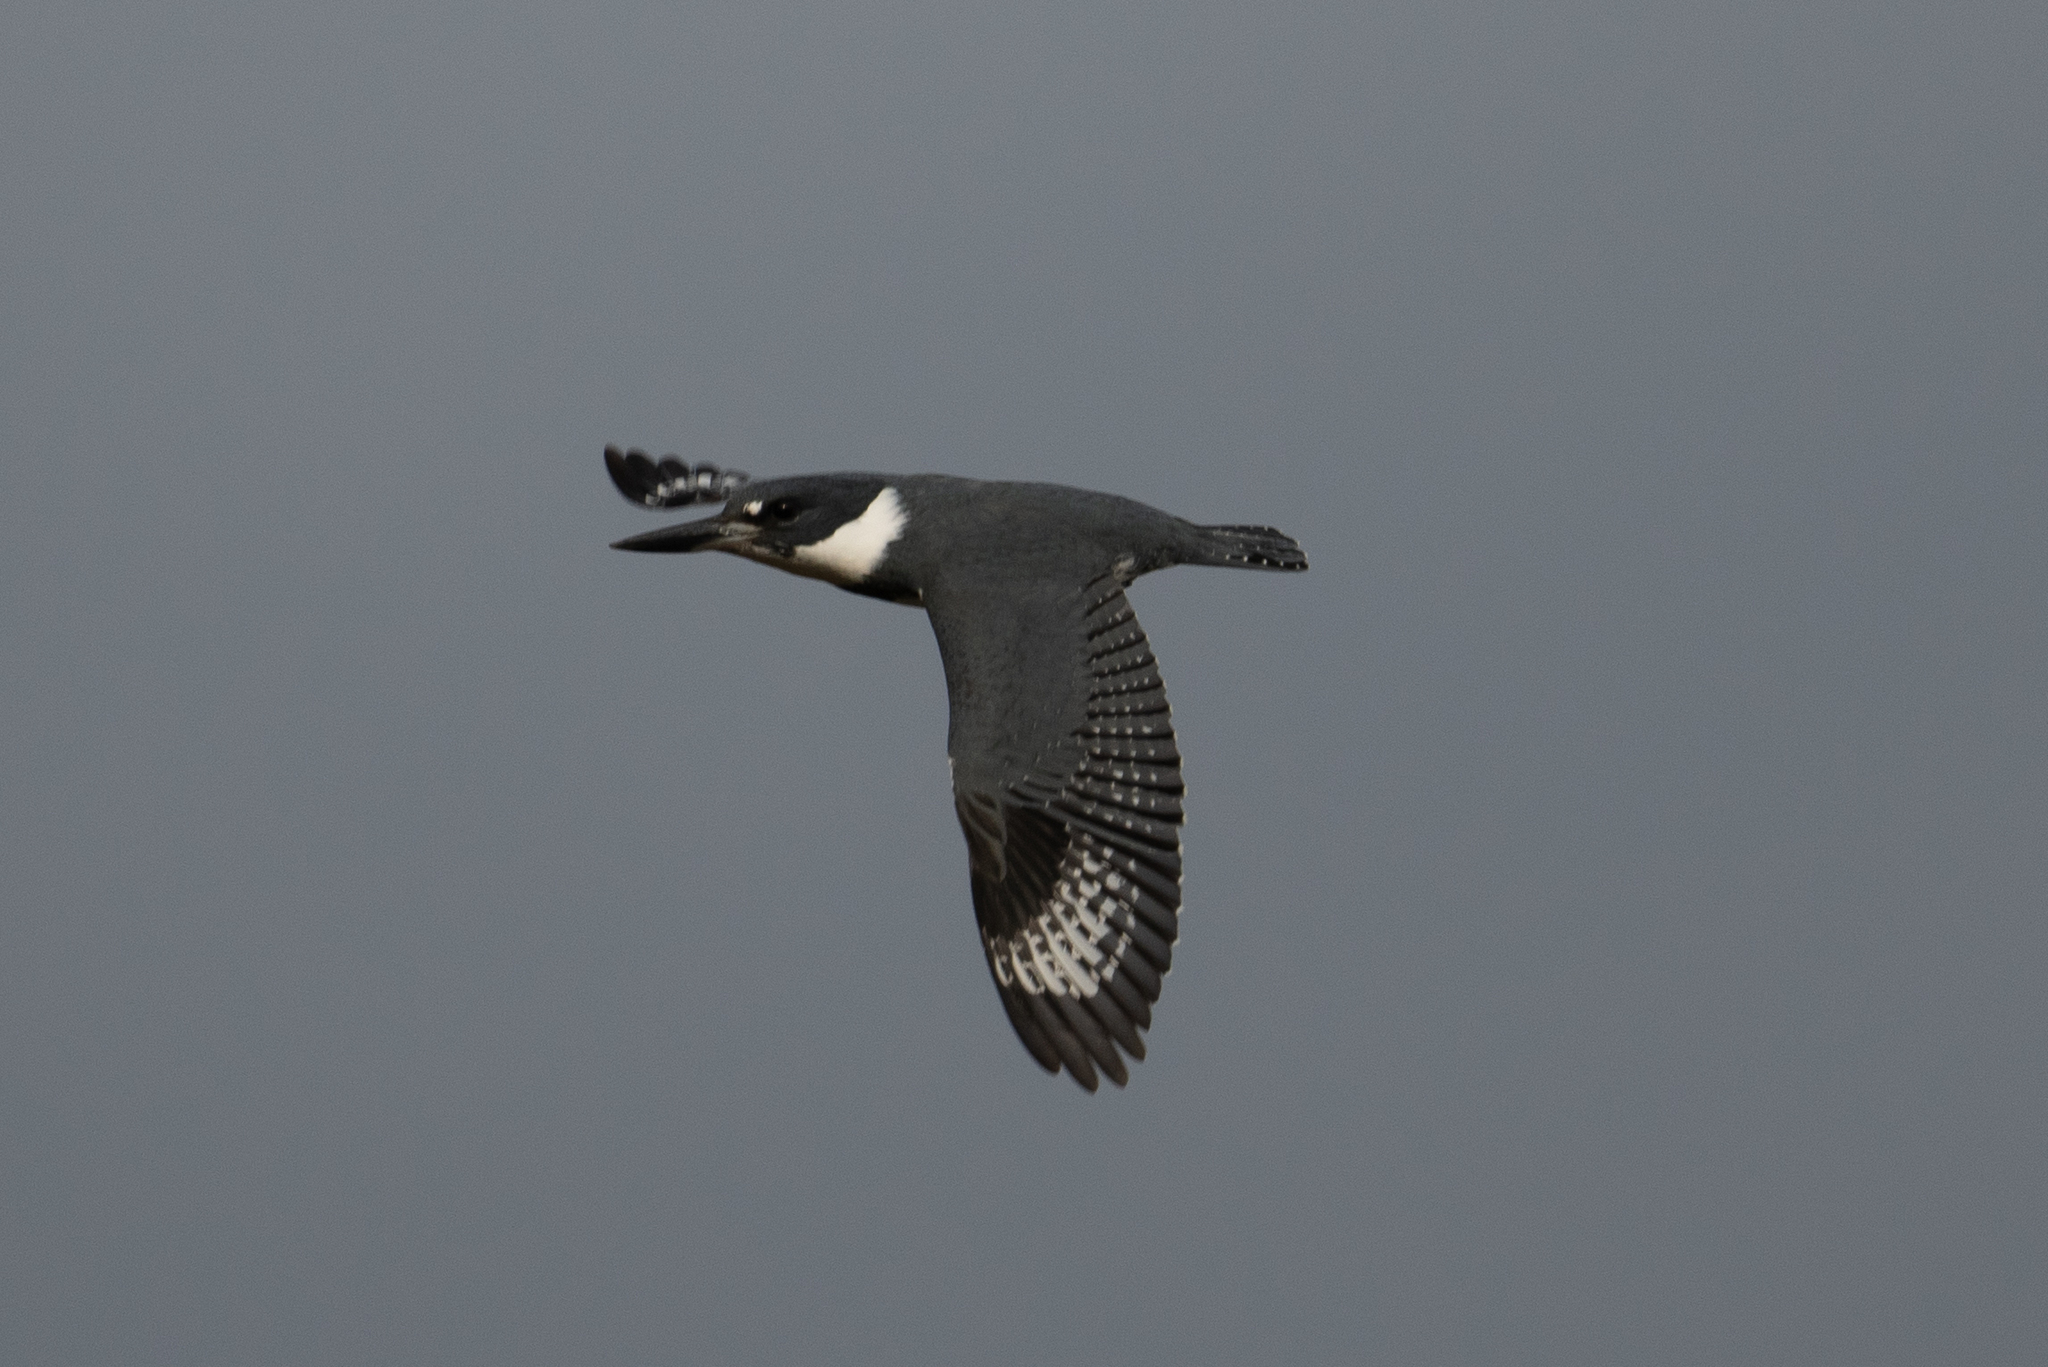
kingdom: Animalia
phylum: Chordata
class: Aves
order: Coraciiformes
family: Alcedinidae
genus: Megaceryle
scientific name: Megaceryle alcyon
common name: Belted kingfisher
